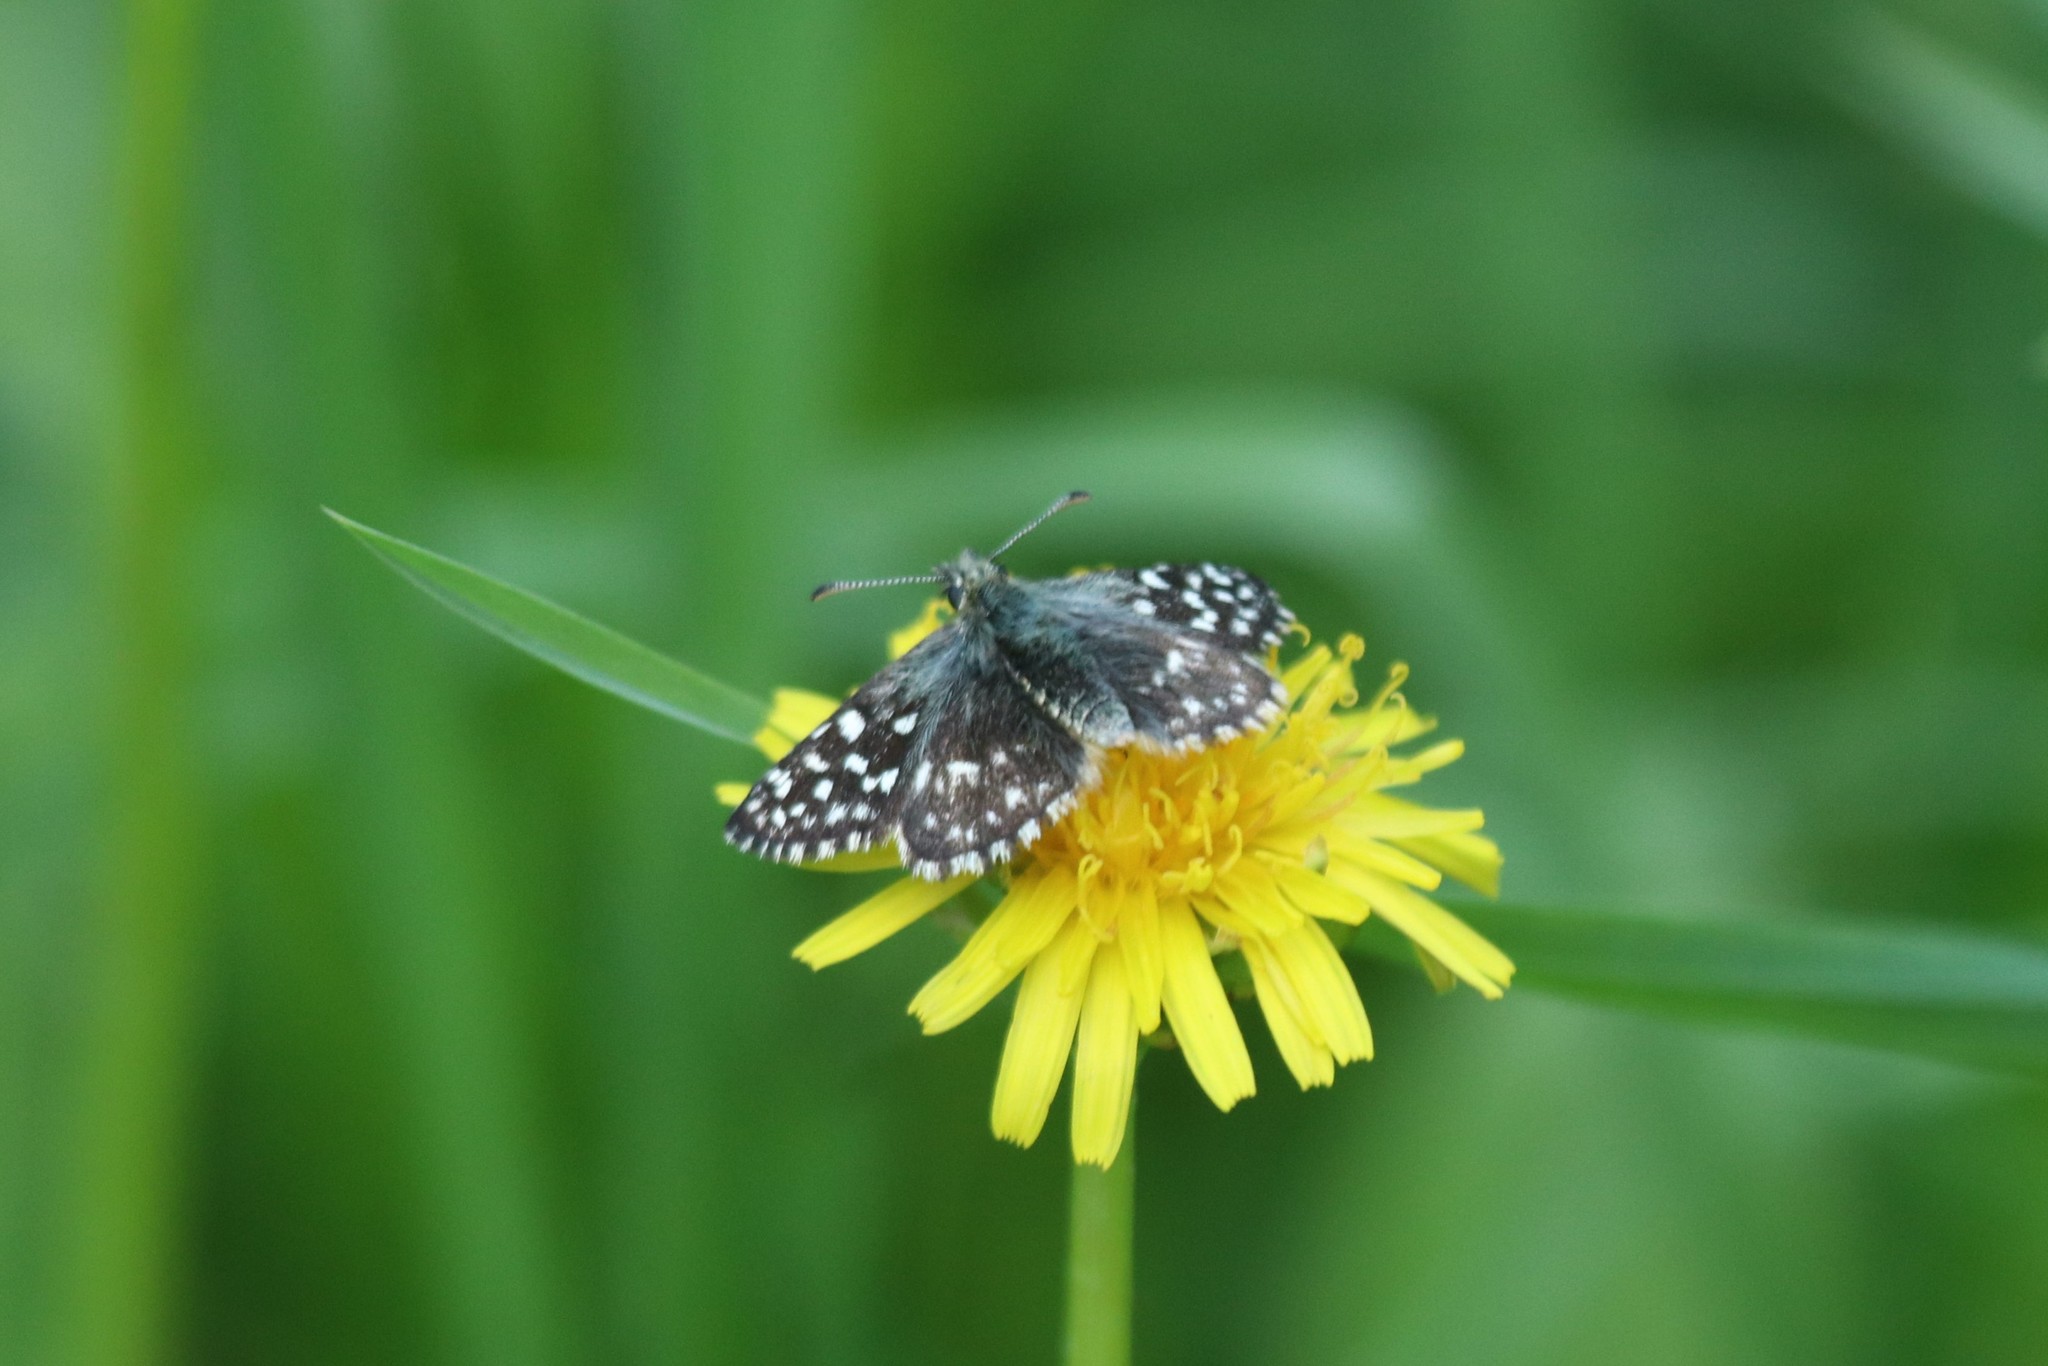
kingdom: Animalia
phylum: Arthropoda
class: Insecta
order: Lepidoptera
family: Hesperiidae
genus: Pyrgus
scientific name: Pyrgus malvae
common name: Grizzled skipper
